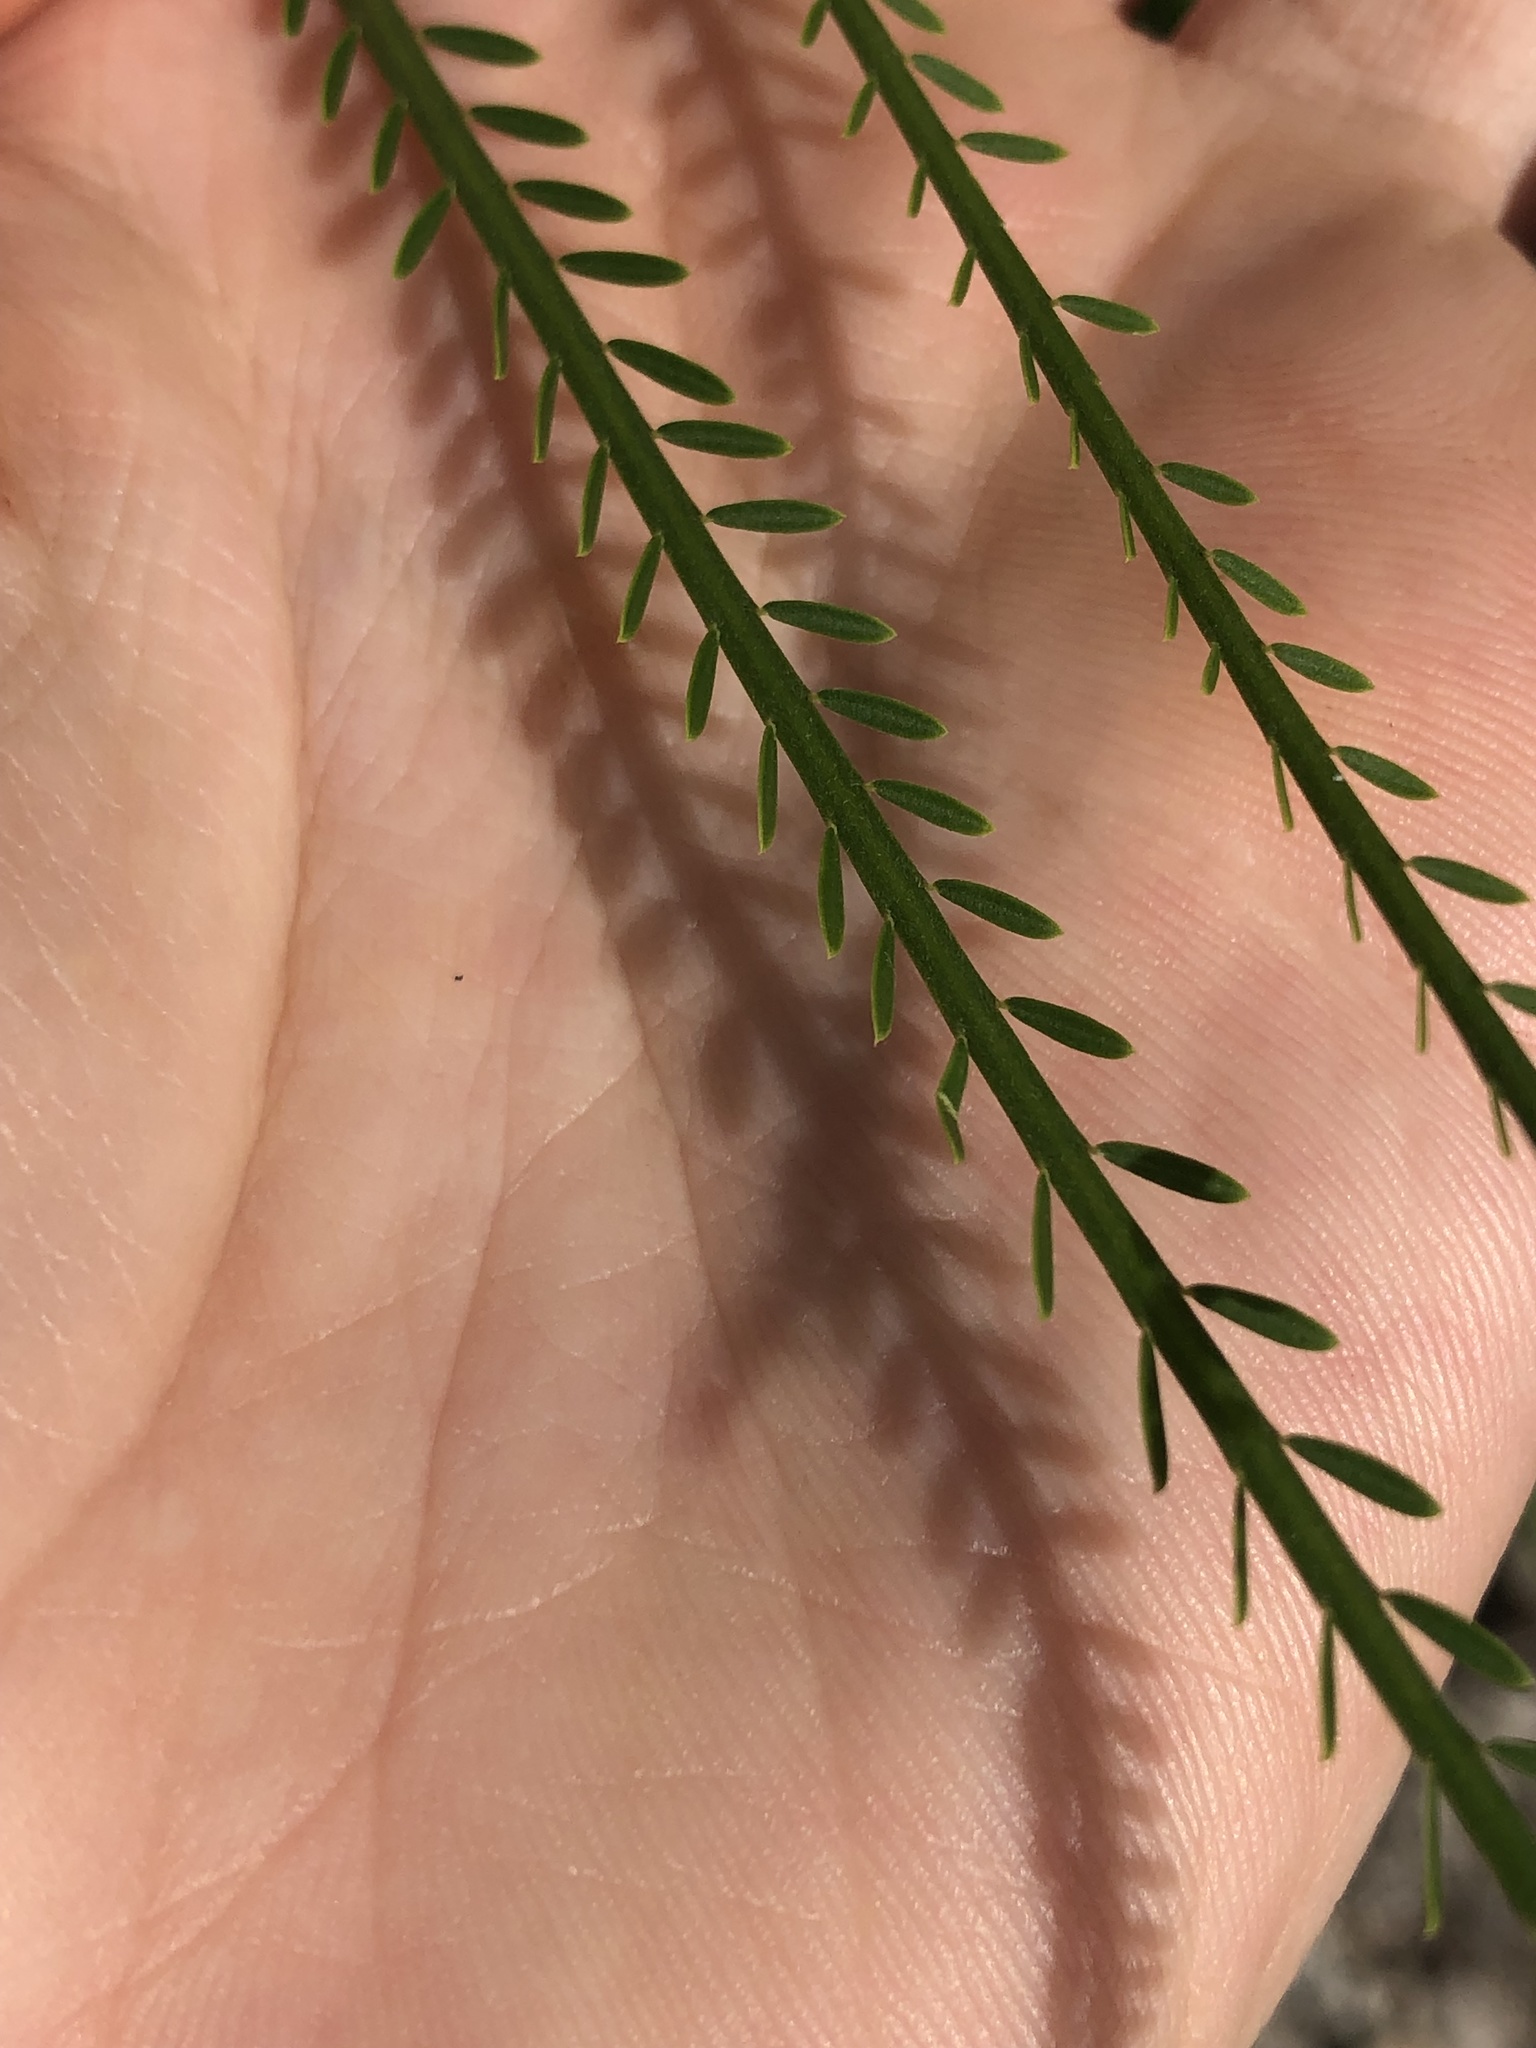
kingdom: Plantae
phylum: Tracheophyta
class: Magnoliopsida
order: Fabales
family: Fabaceae
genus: Parkinsonia
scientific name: Parkinsonia aculeata
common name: Jerusalem thorn
